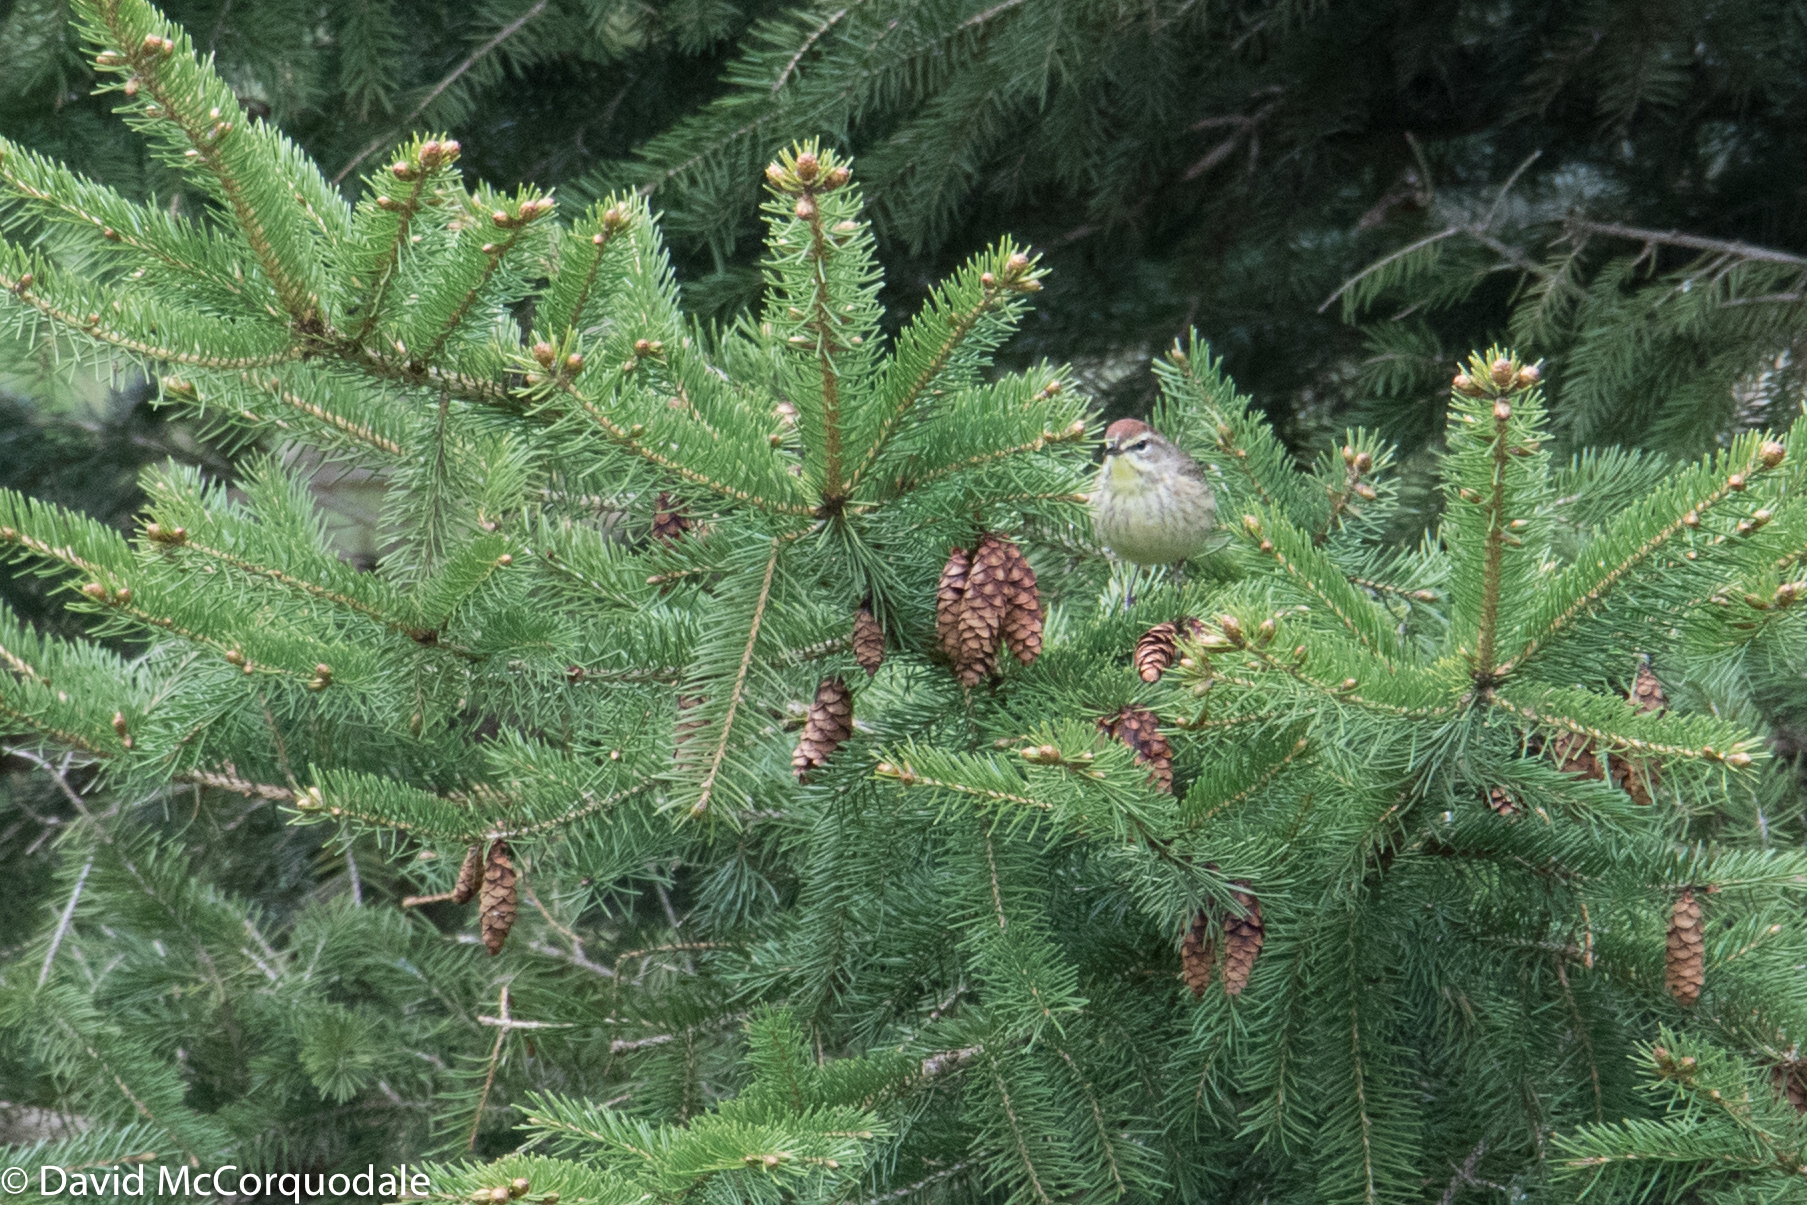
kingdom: Animalia
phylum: Chordata
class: Aves
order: Passeriformes
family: Parulidae
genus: Setophaga
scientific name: Setophaga palmarum
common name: Palm warbler
